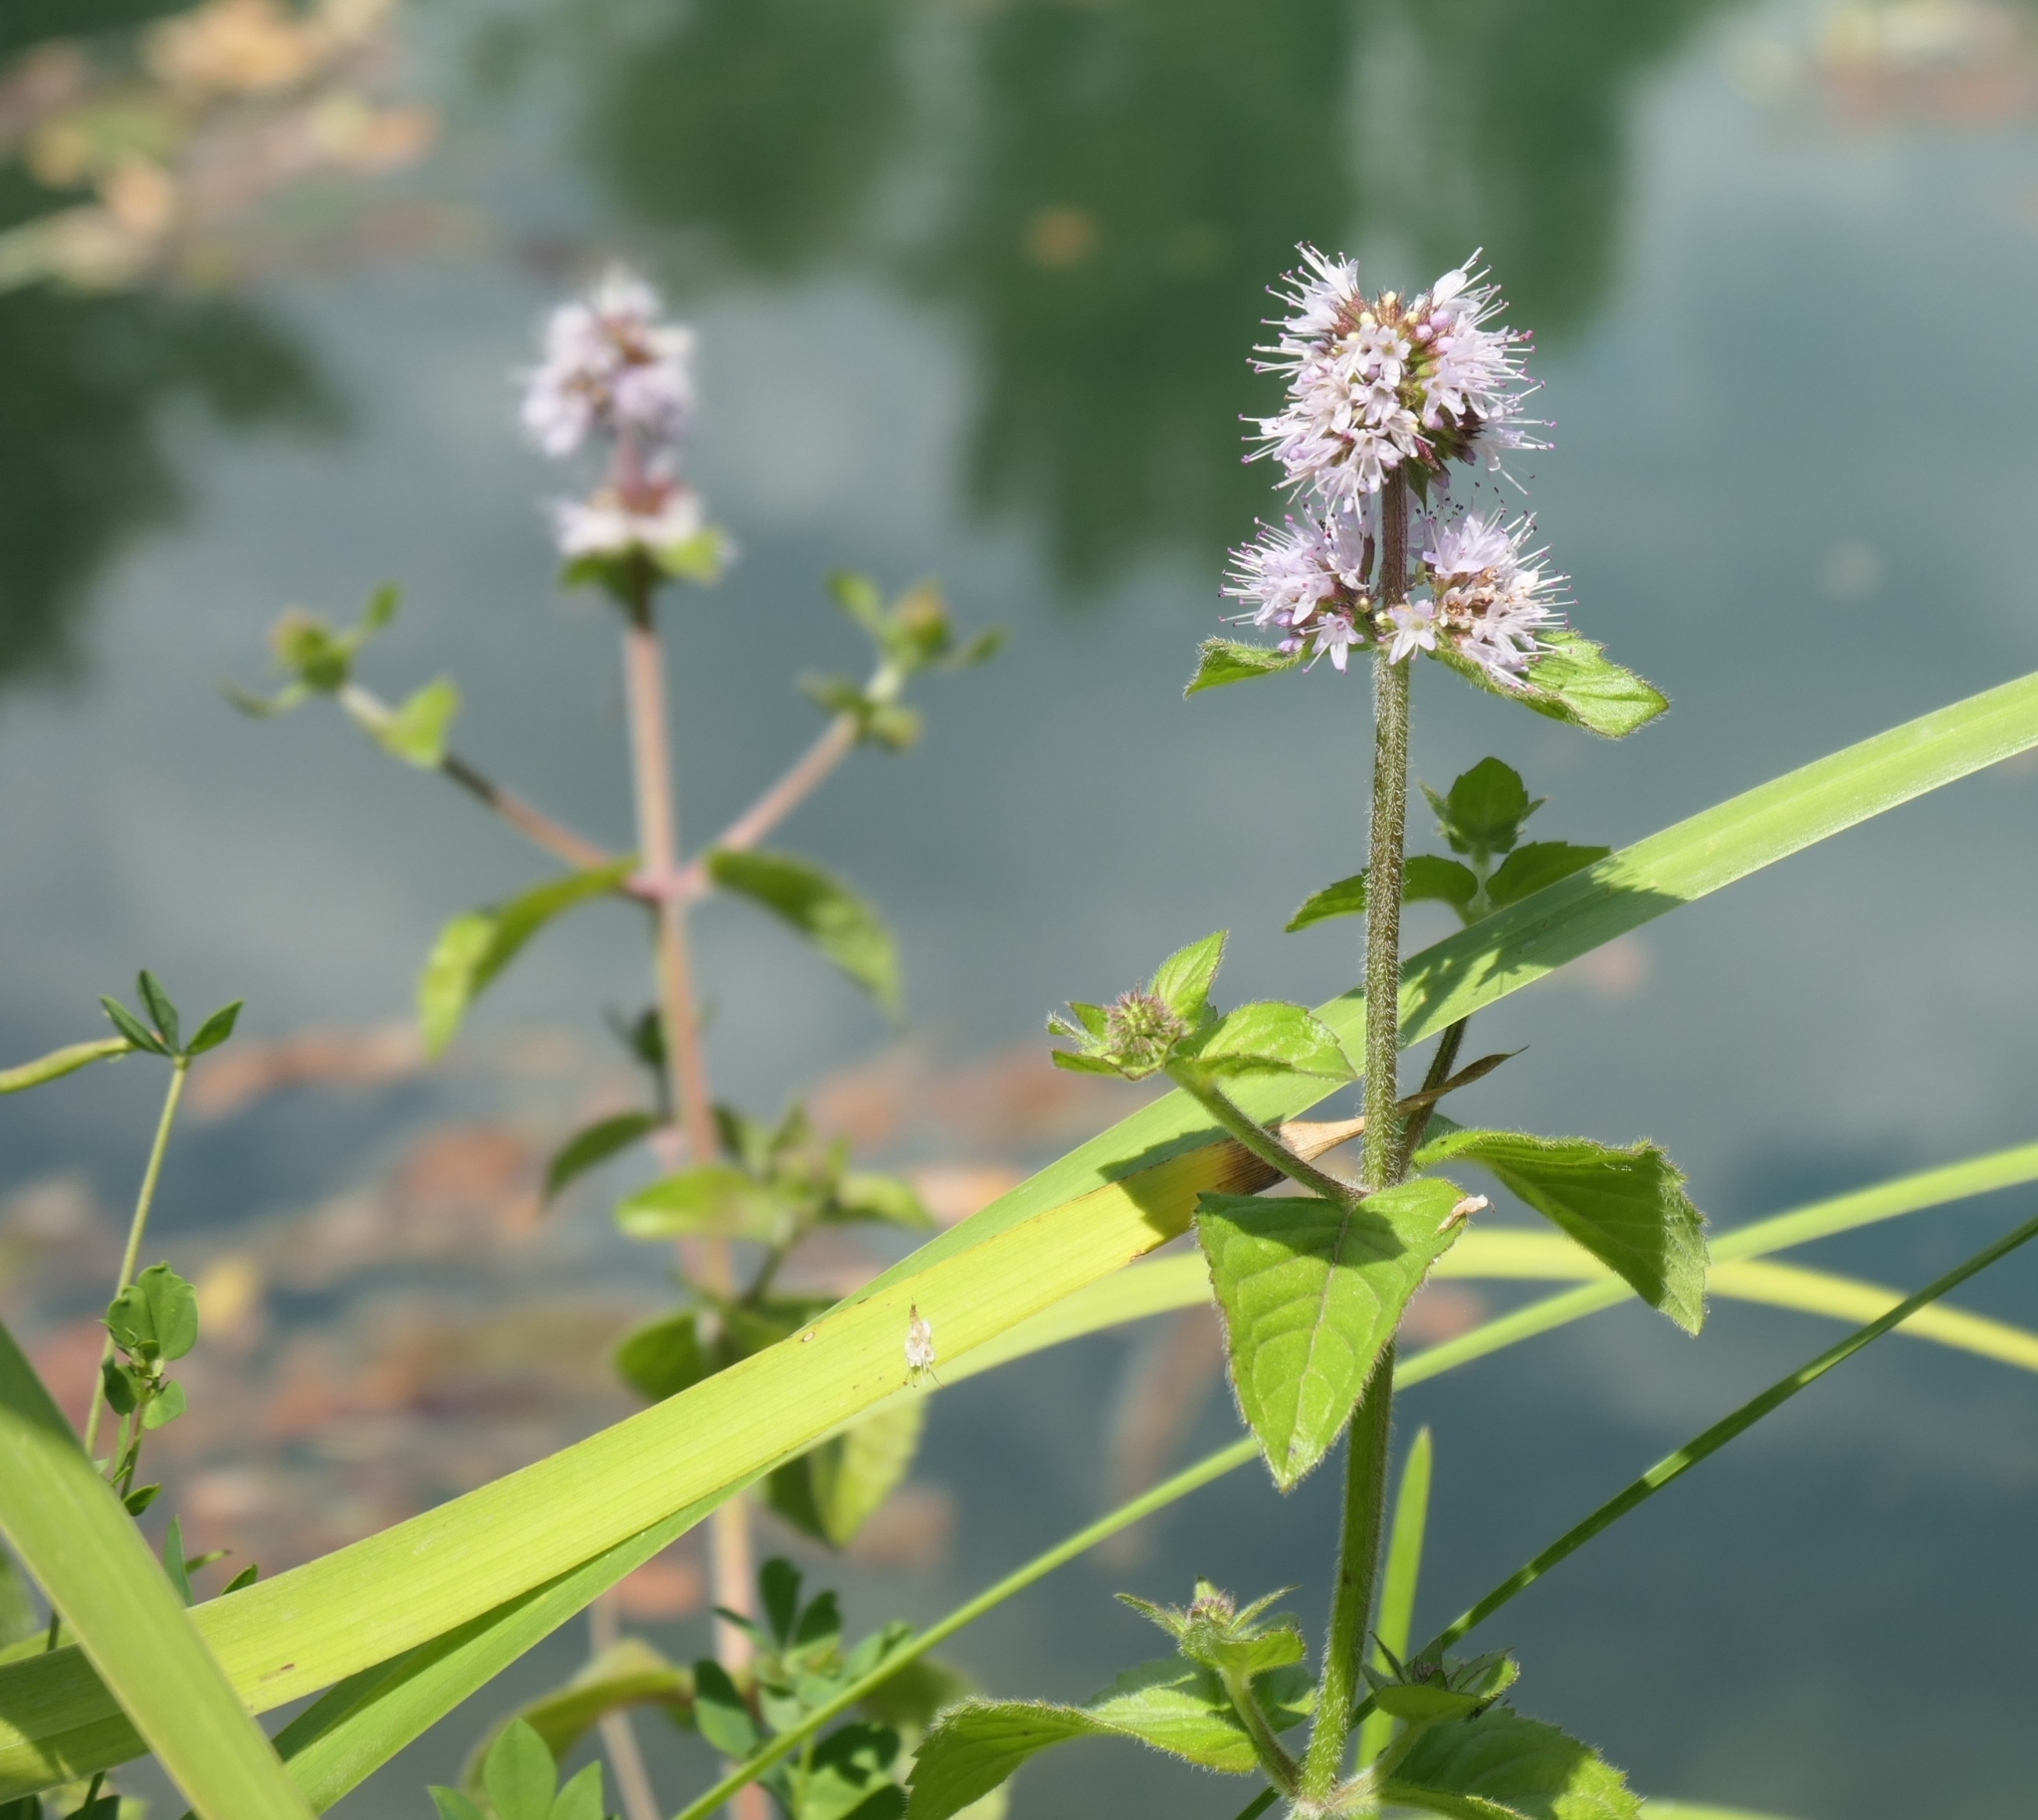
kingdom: Plantae
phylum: Tracheophyta
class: Magnoliopsida
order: Lamiales
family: Lamiaceae
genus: Mentha
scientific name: Mentha aquatica
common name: Water mint
